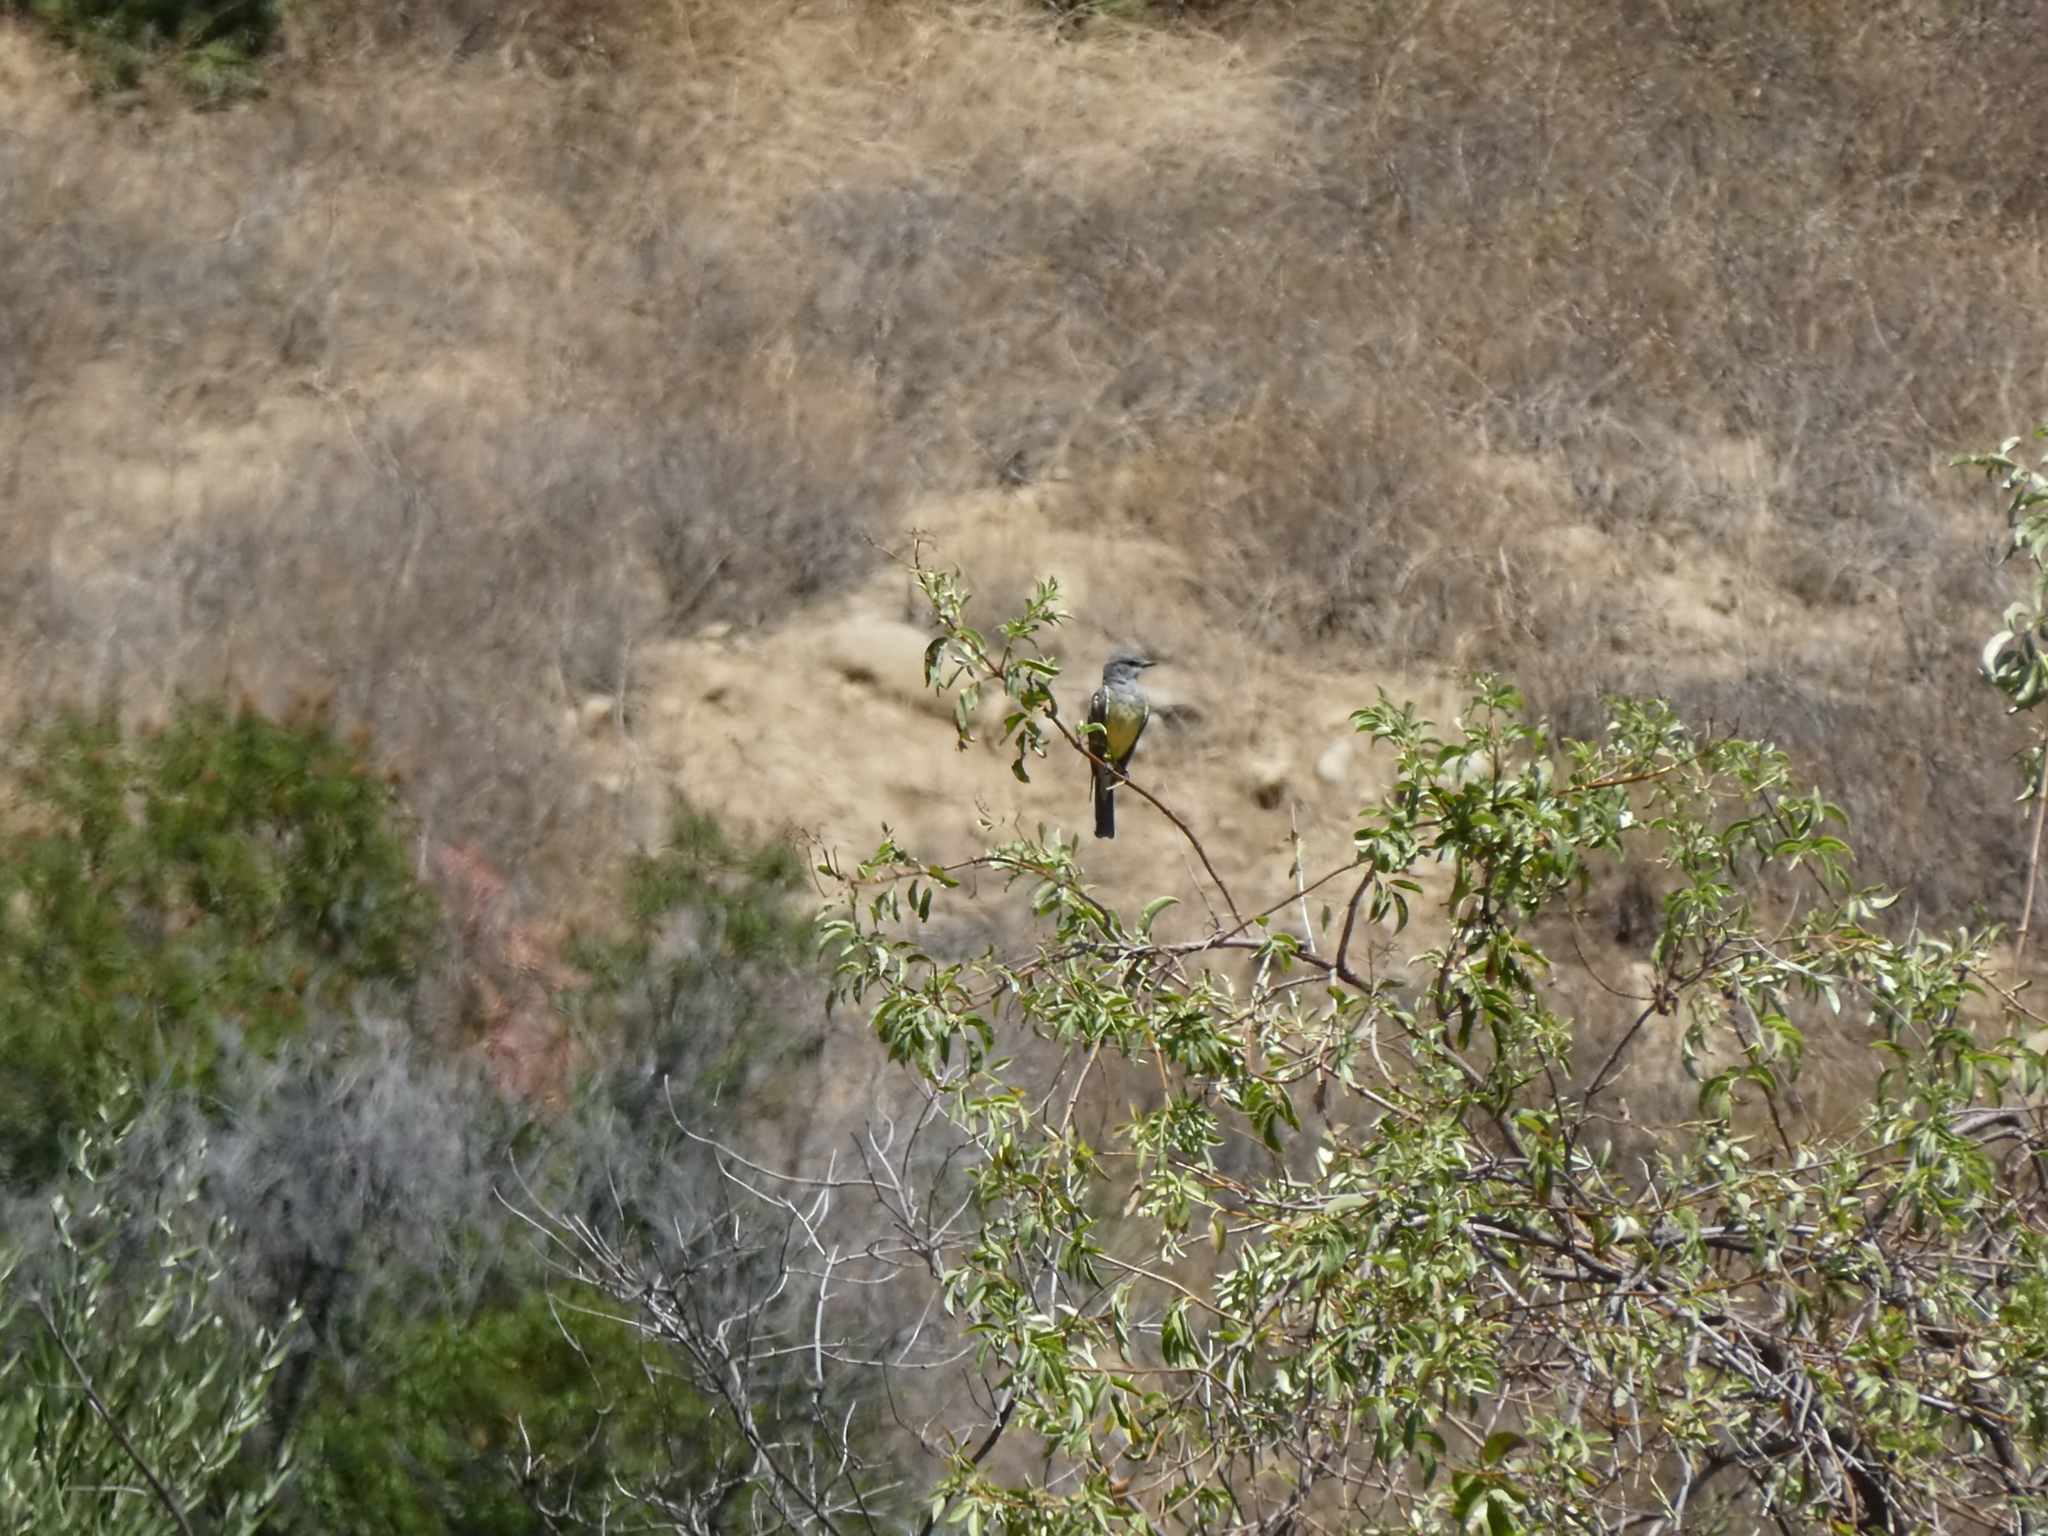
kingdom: Animalia
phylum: Chordata
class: Aves
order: Passeriformes
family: Tyrannidae
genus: Tyrannus
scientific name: Tyrannus verticalis
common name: Western kingbird
